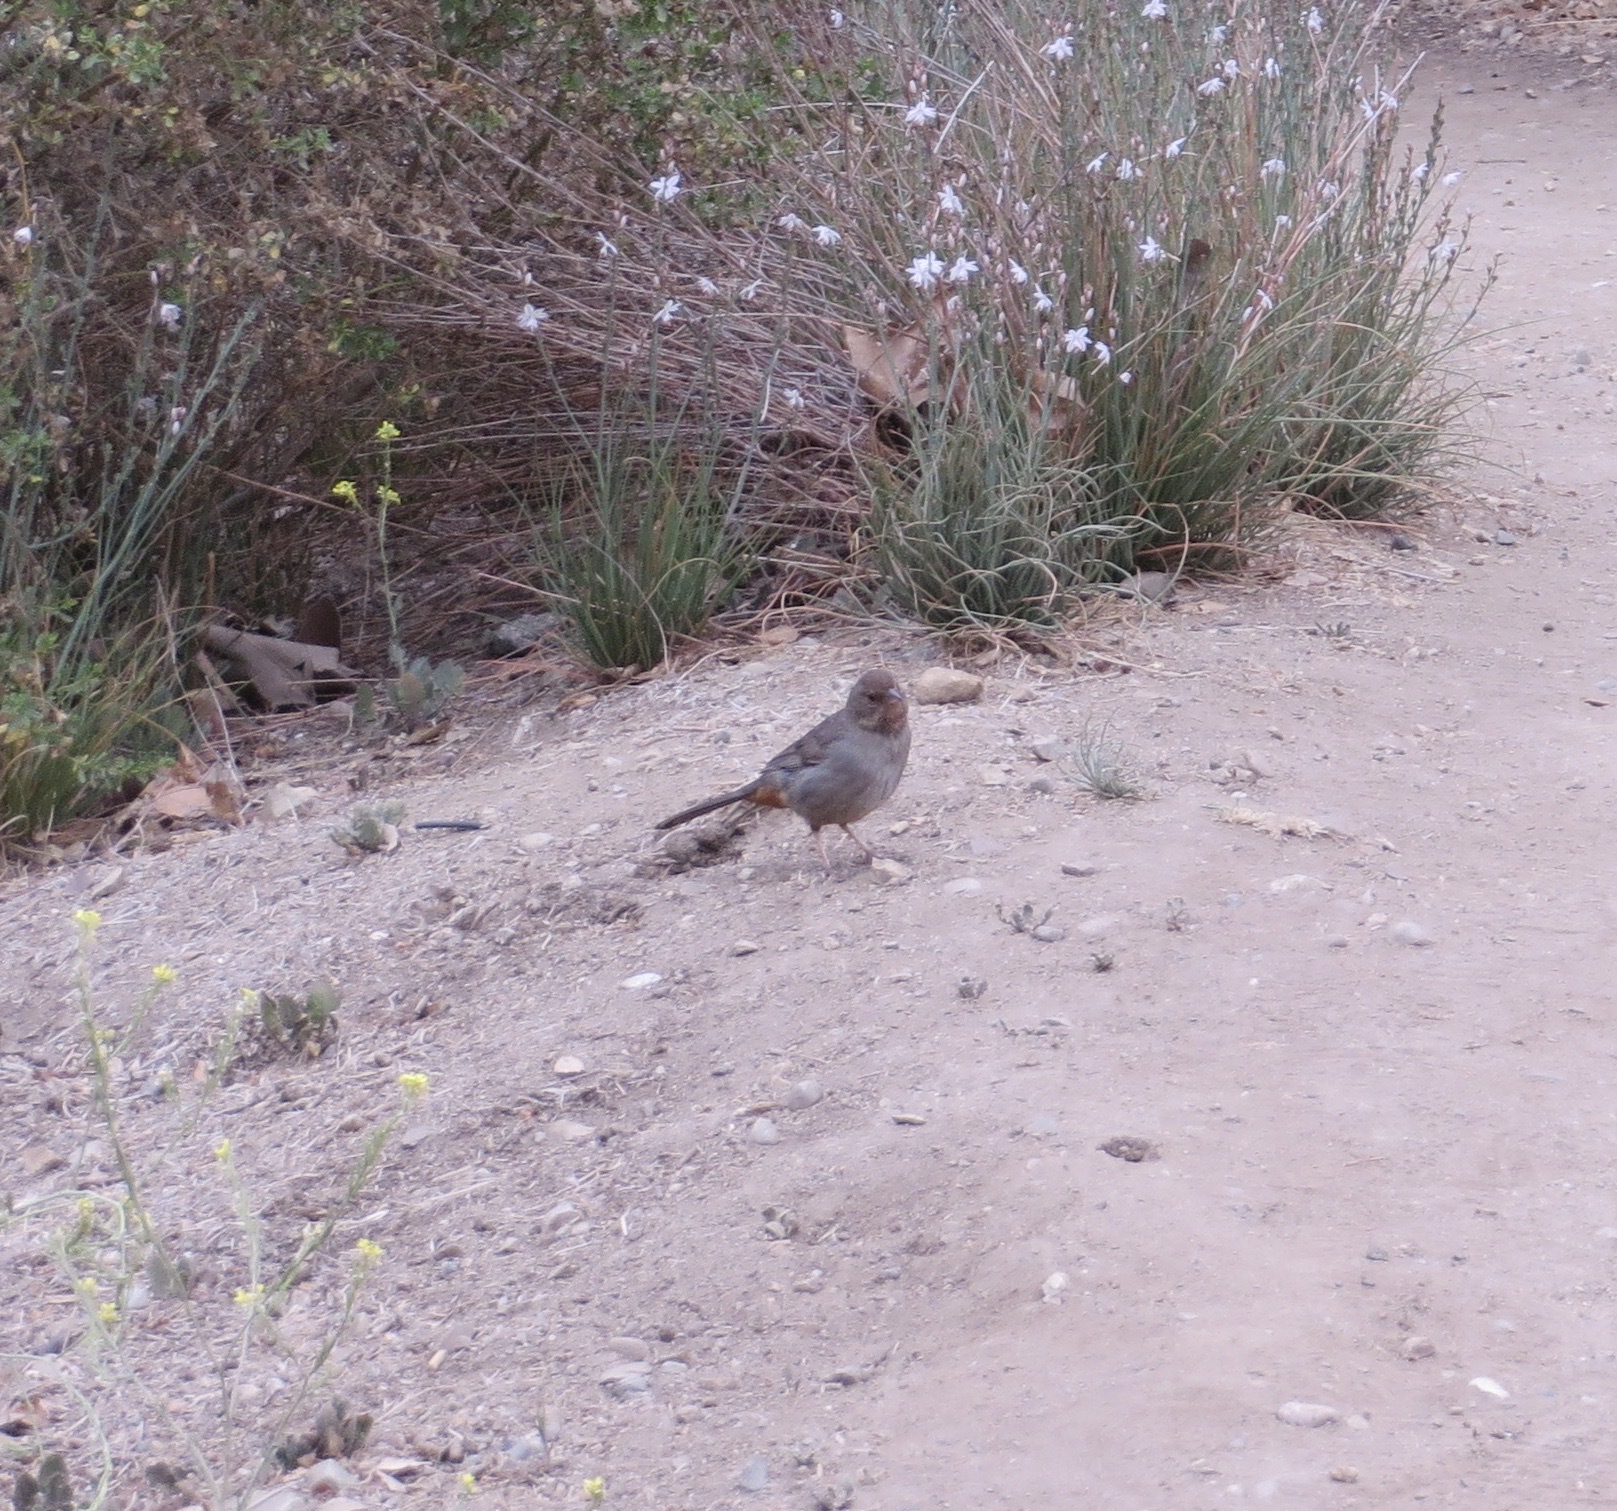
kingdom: Animalia
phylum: Chordata
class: Aves
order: Passeriformes
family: Passerellidae
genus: Melozone
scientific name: Melozone crissalis
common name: California towhee
